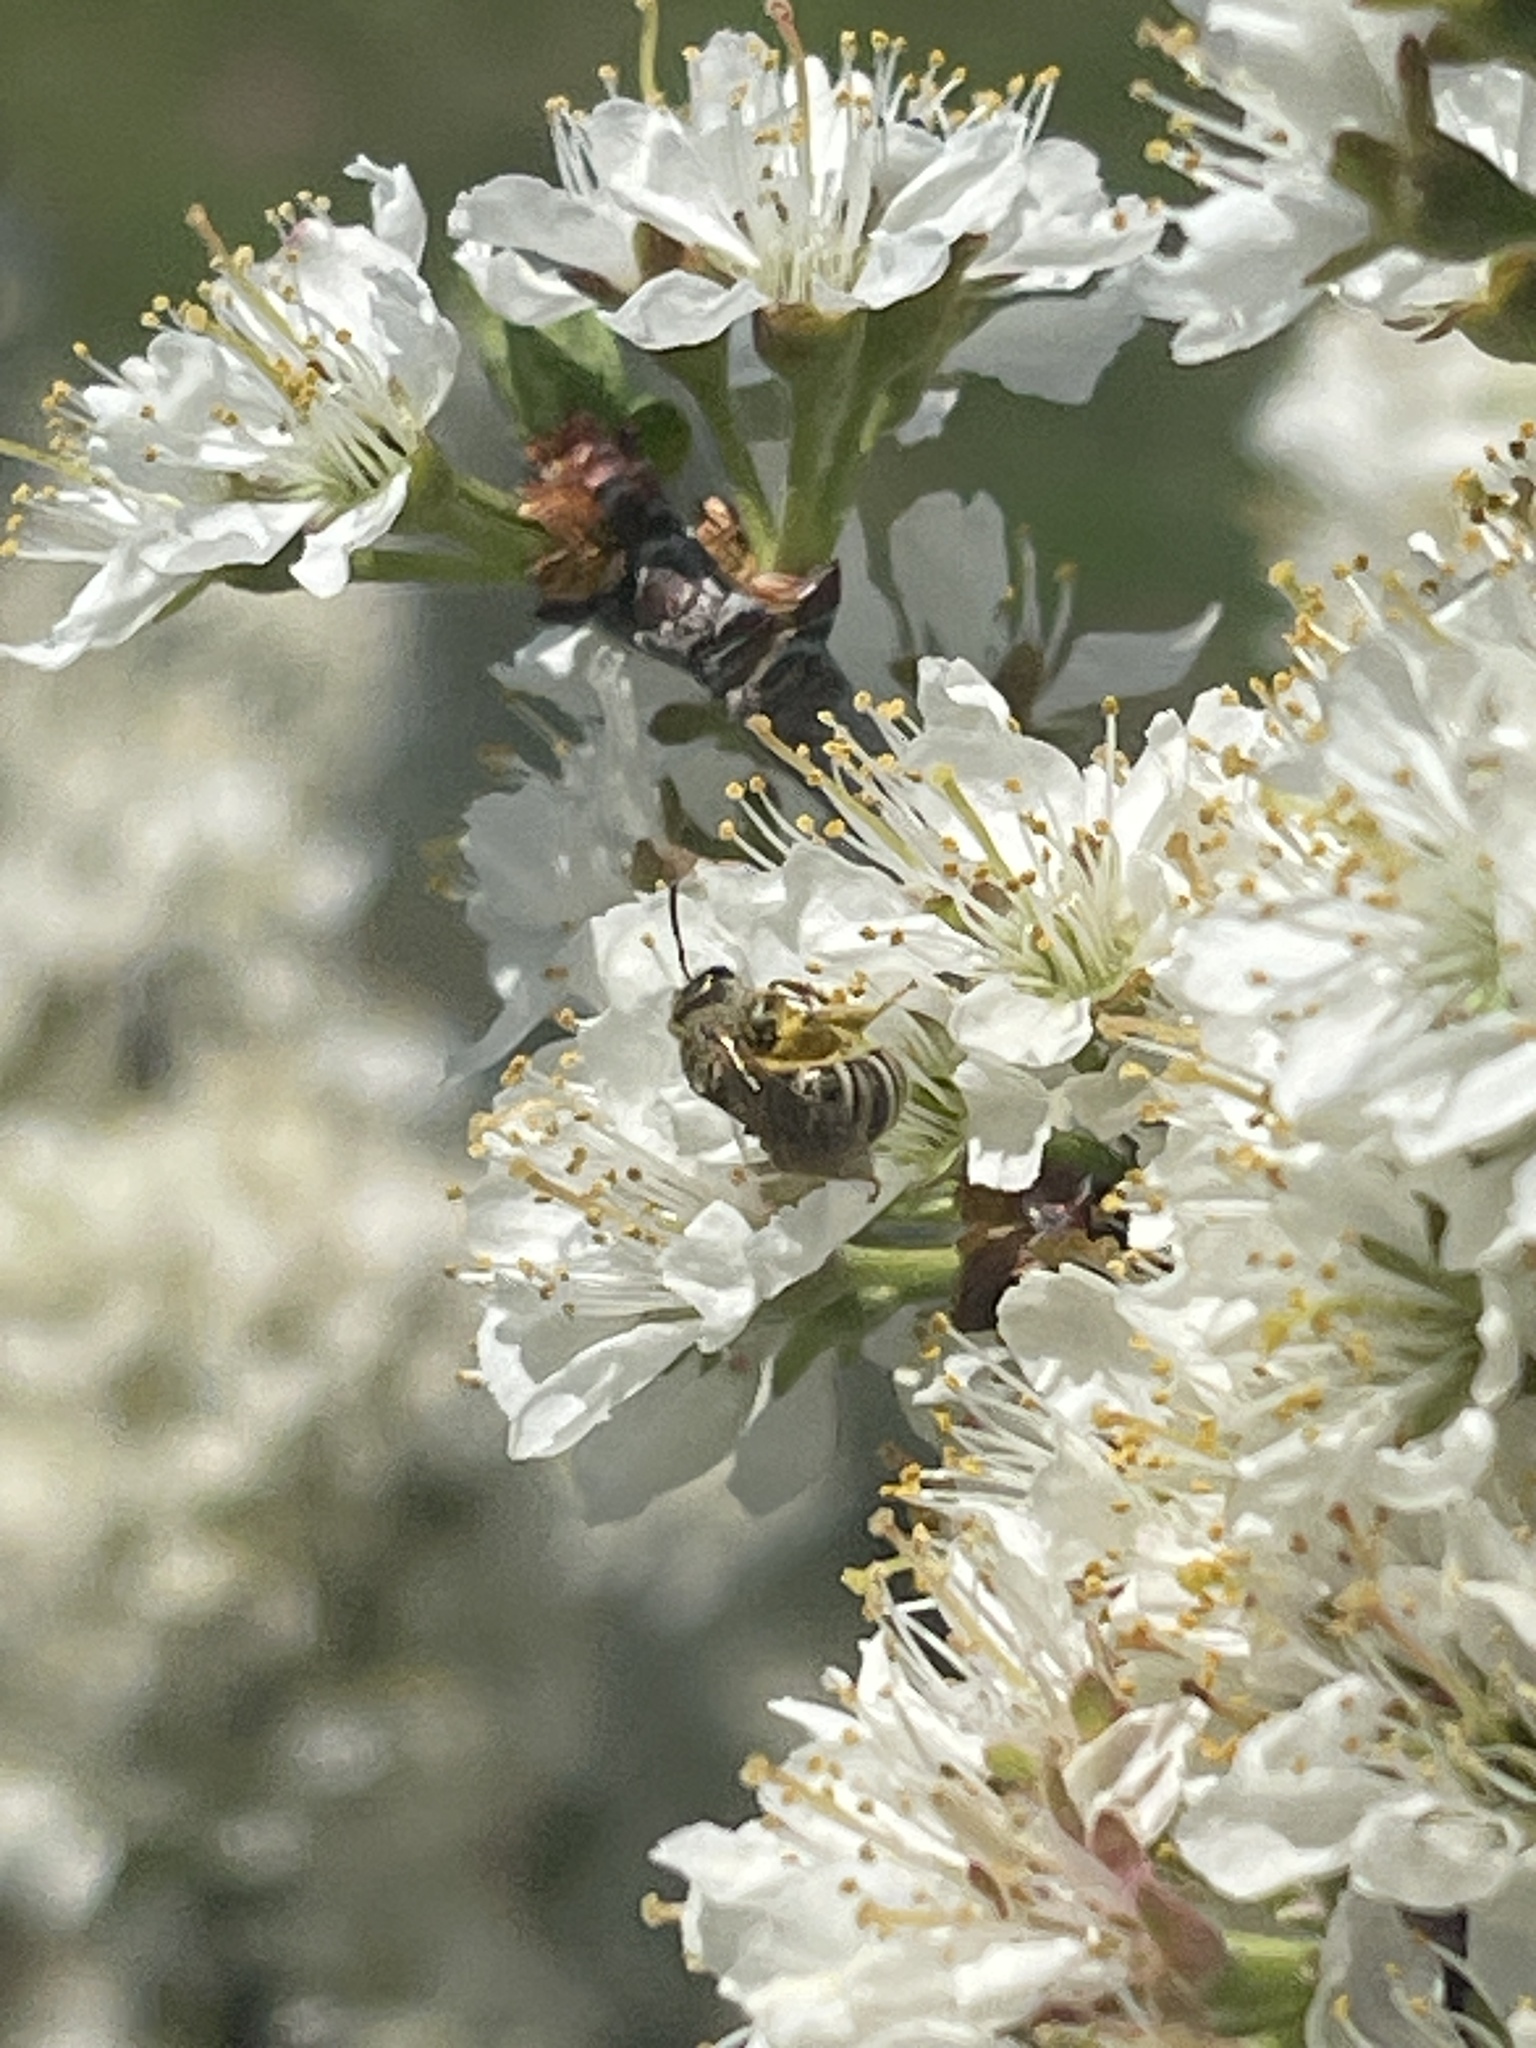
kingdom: Animalia
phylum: Arthropoda
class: Insecta
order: Hymenoptera
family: Halictidae
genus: Halictus
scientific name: Halictus confusus
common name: Southern bronze furrow bee
